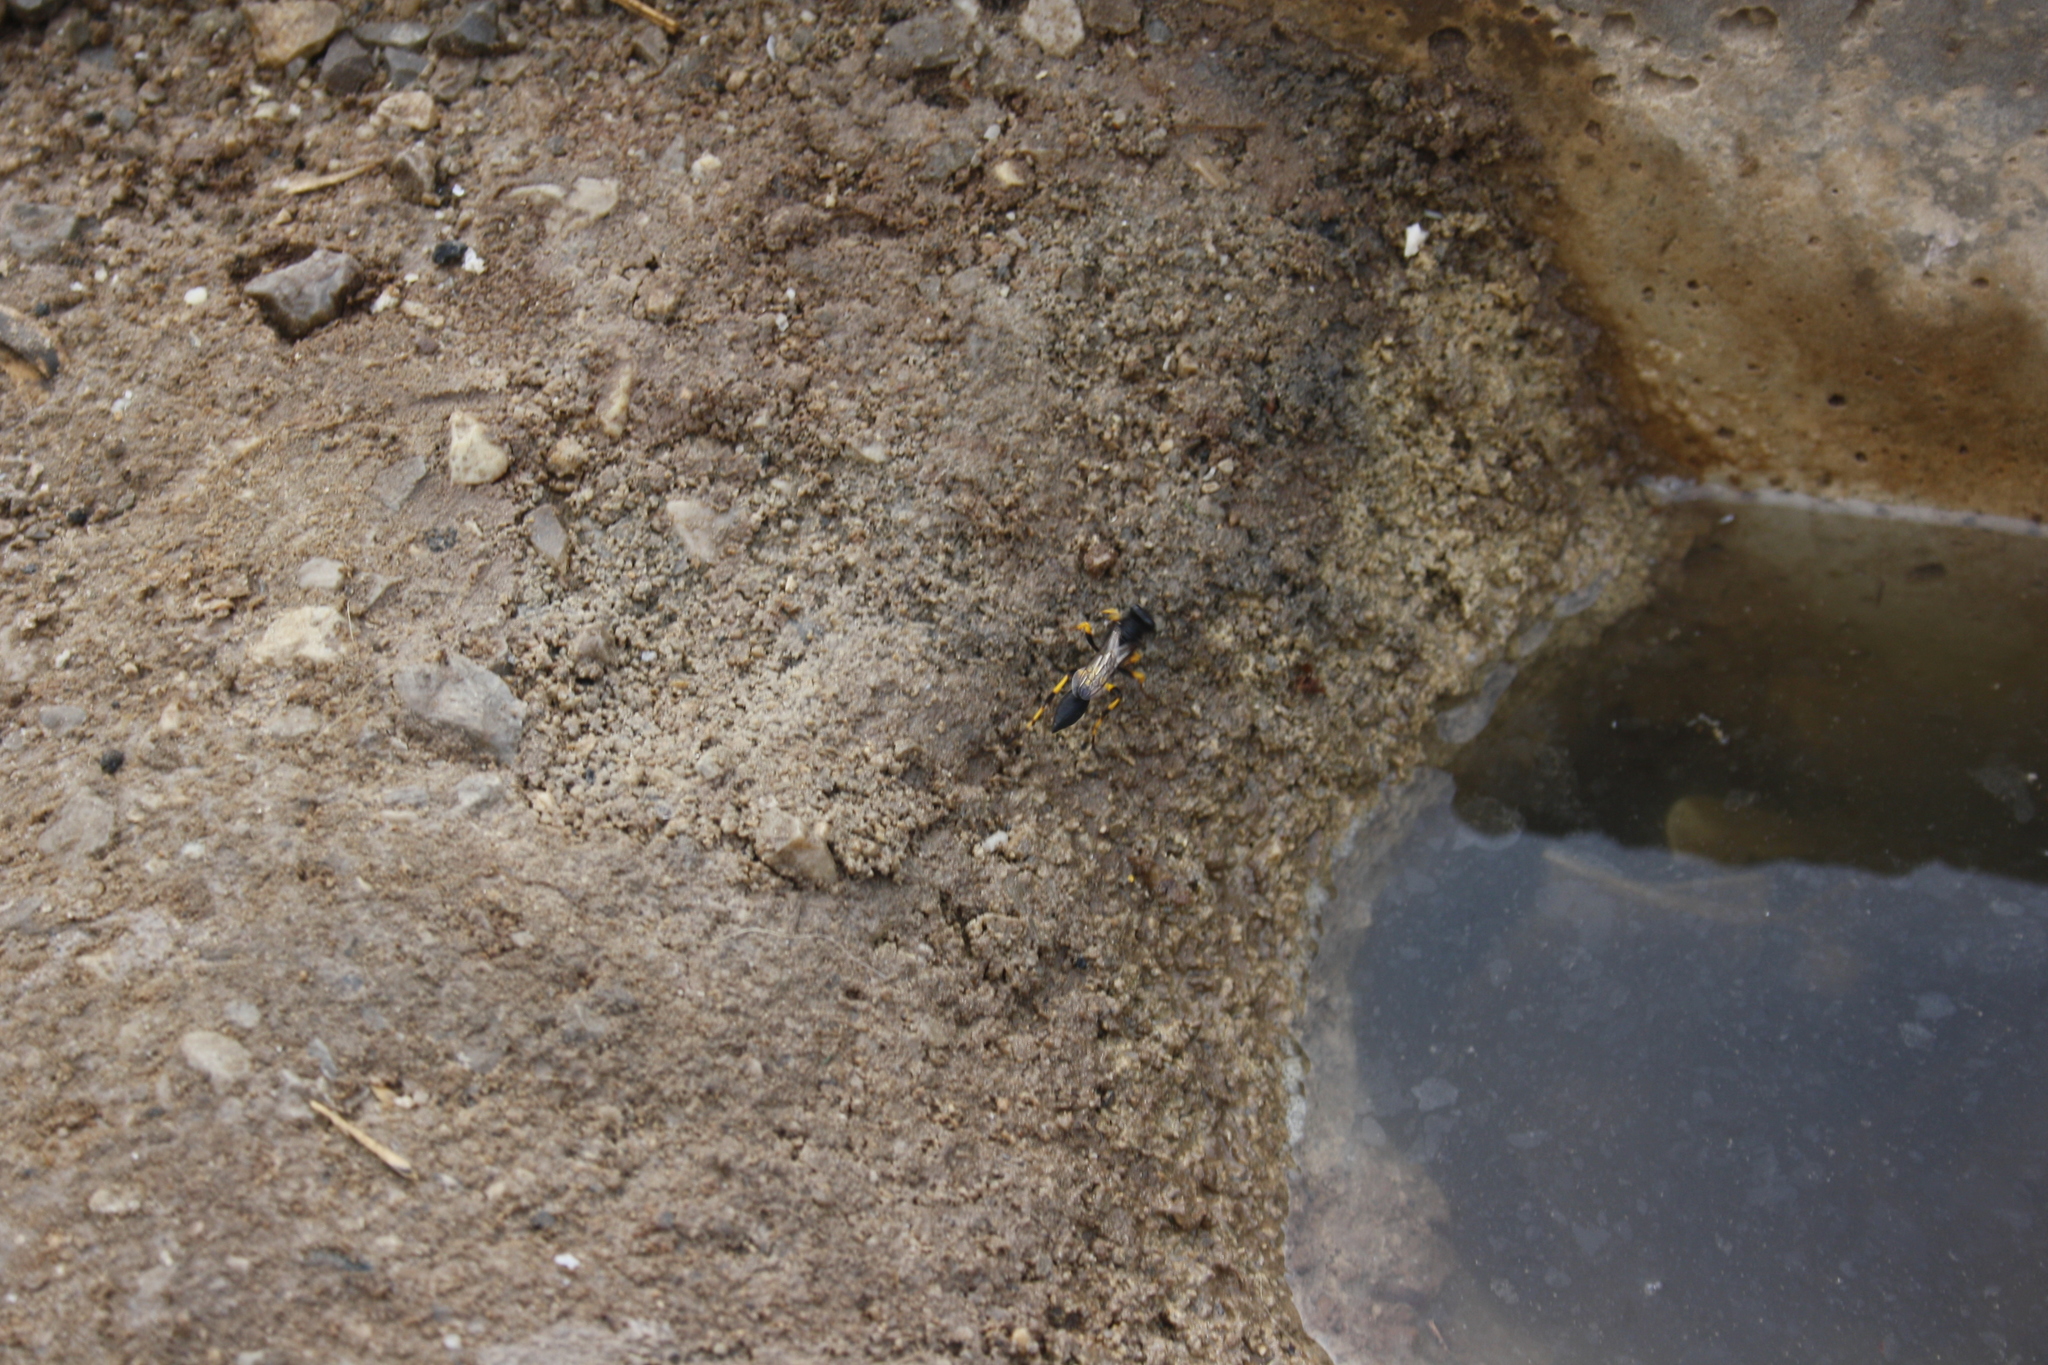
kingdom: Animalia
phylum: Arthropoda
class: Insecta
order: Hymenoptera
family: Sphecidae
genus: Sceliphron
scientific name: Sceliphron spirifex
